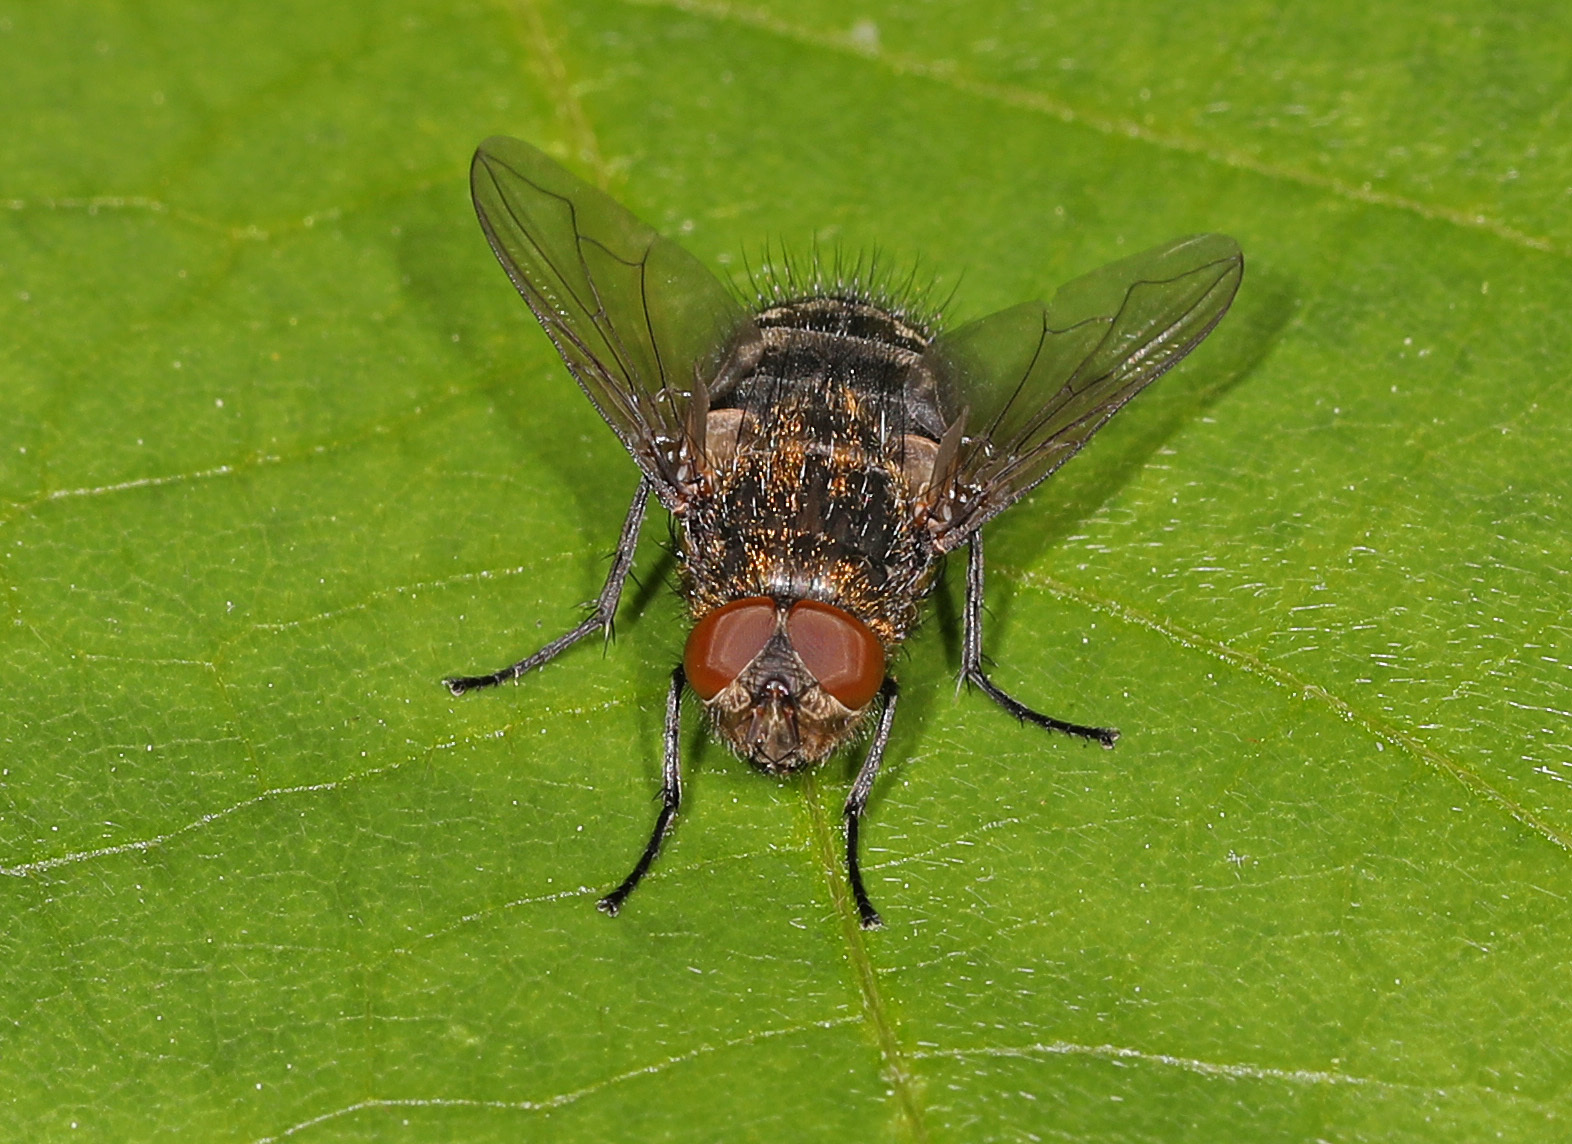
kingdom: Animalia
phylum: Arthropoda
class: Insecta
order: Diptera
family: Polleniidae
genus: Pollenia
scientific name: Pollenia
